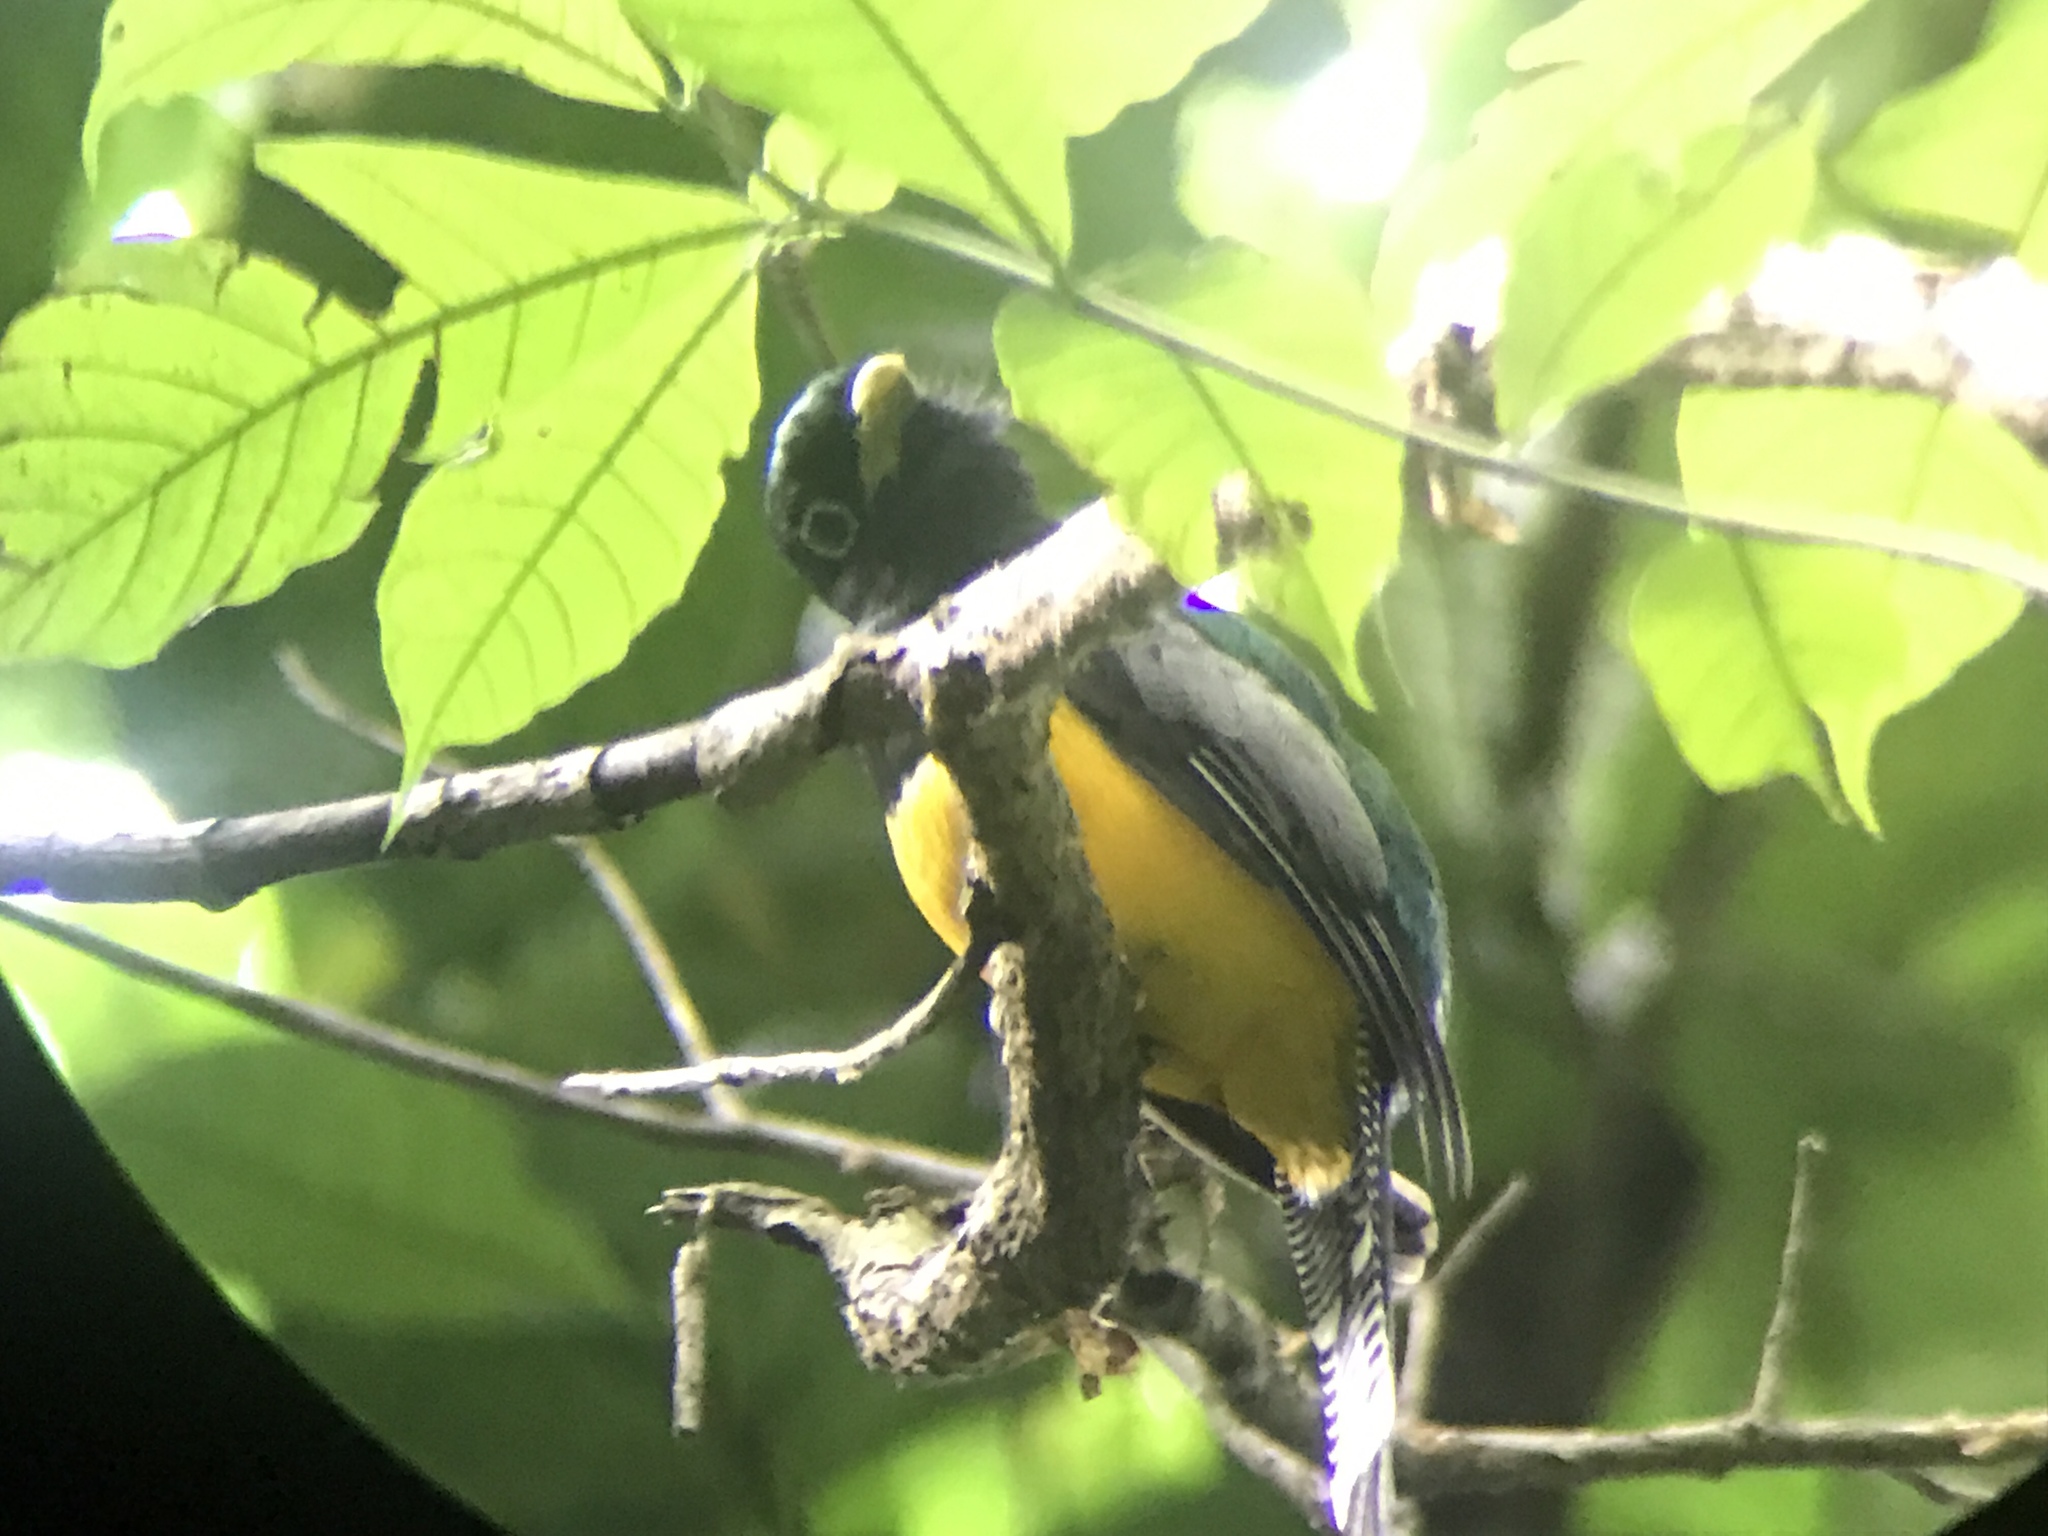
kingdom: Animalia
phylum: Chordata
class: Aves
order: Trogoniformes
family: Trogonidae
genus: Trogon
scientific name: Trogon rufus
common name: Black-throated trogon
